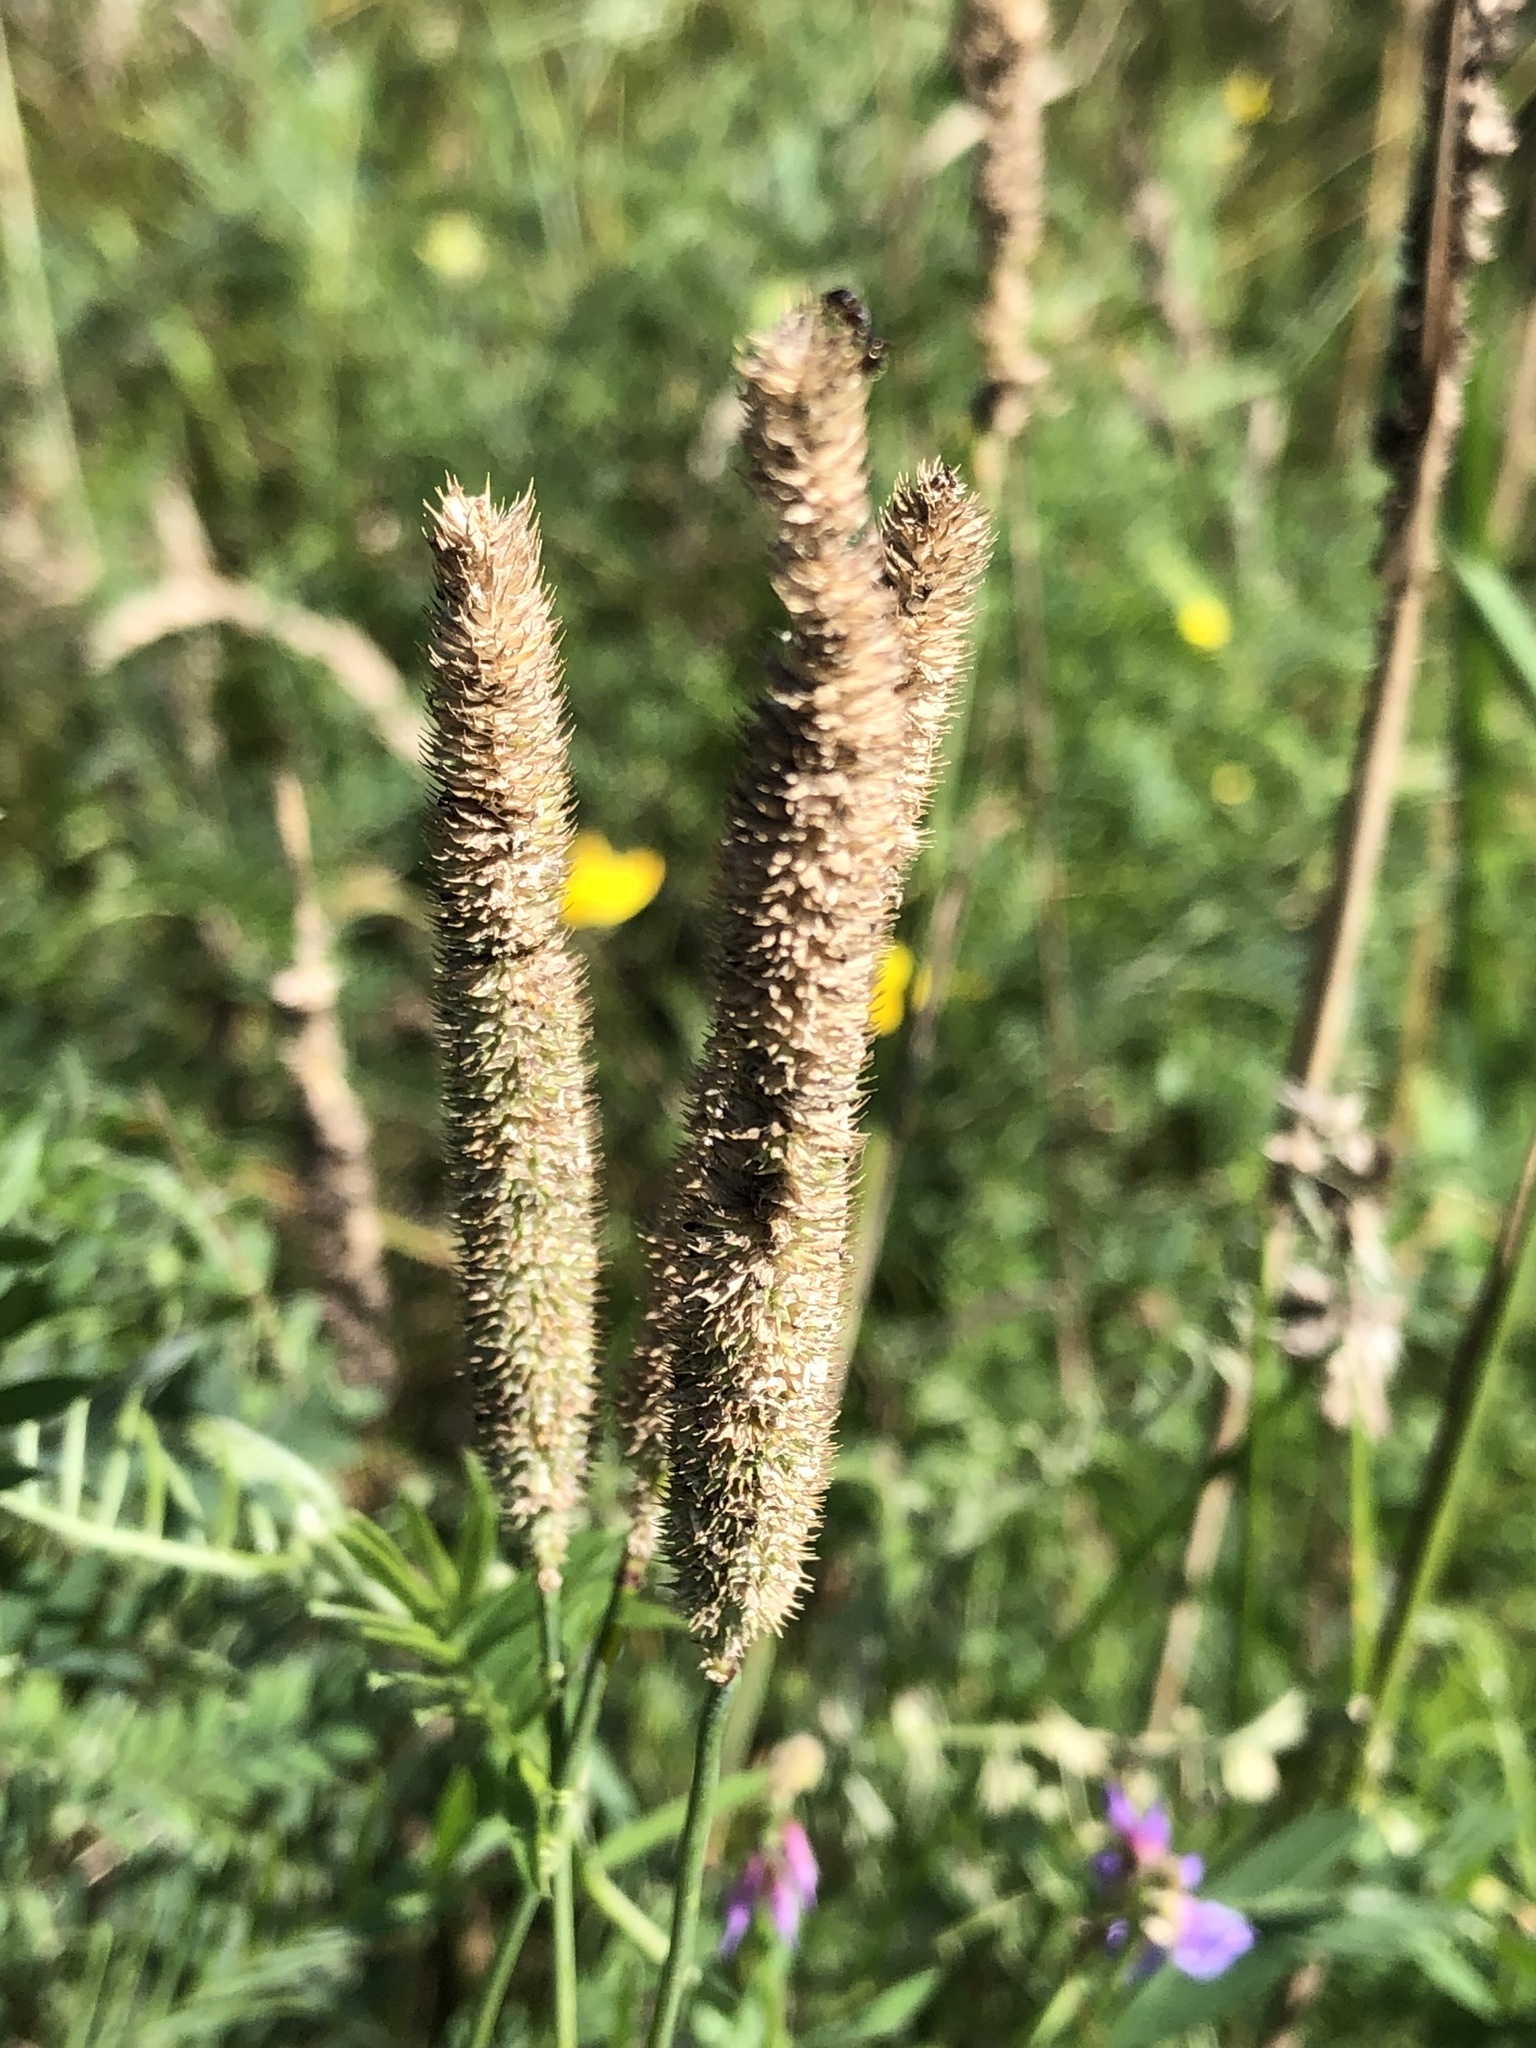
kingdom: Plantae
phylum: Tracheophyta
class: Liliopsida
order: Poales
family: Poaceae
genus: Phleum
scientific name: Phleum pratense
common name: Timothy grass
